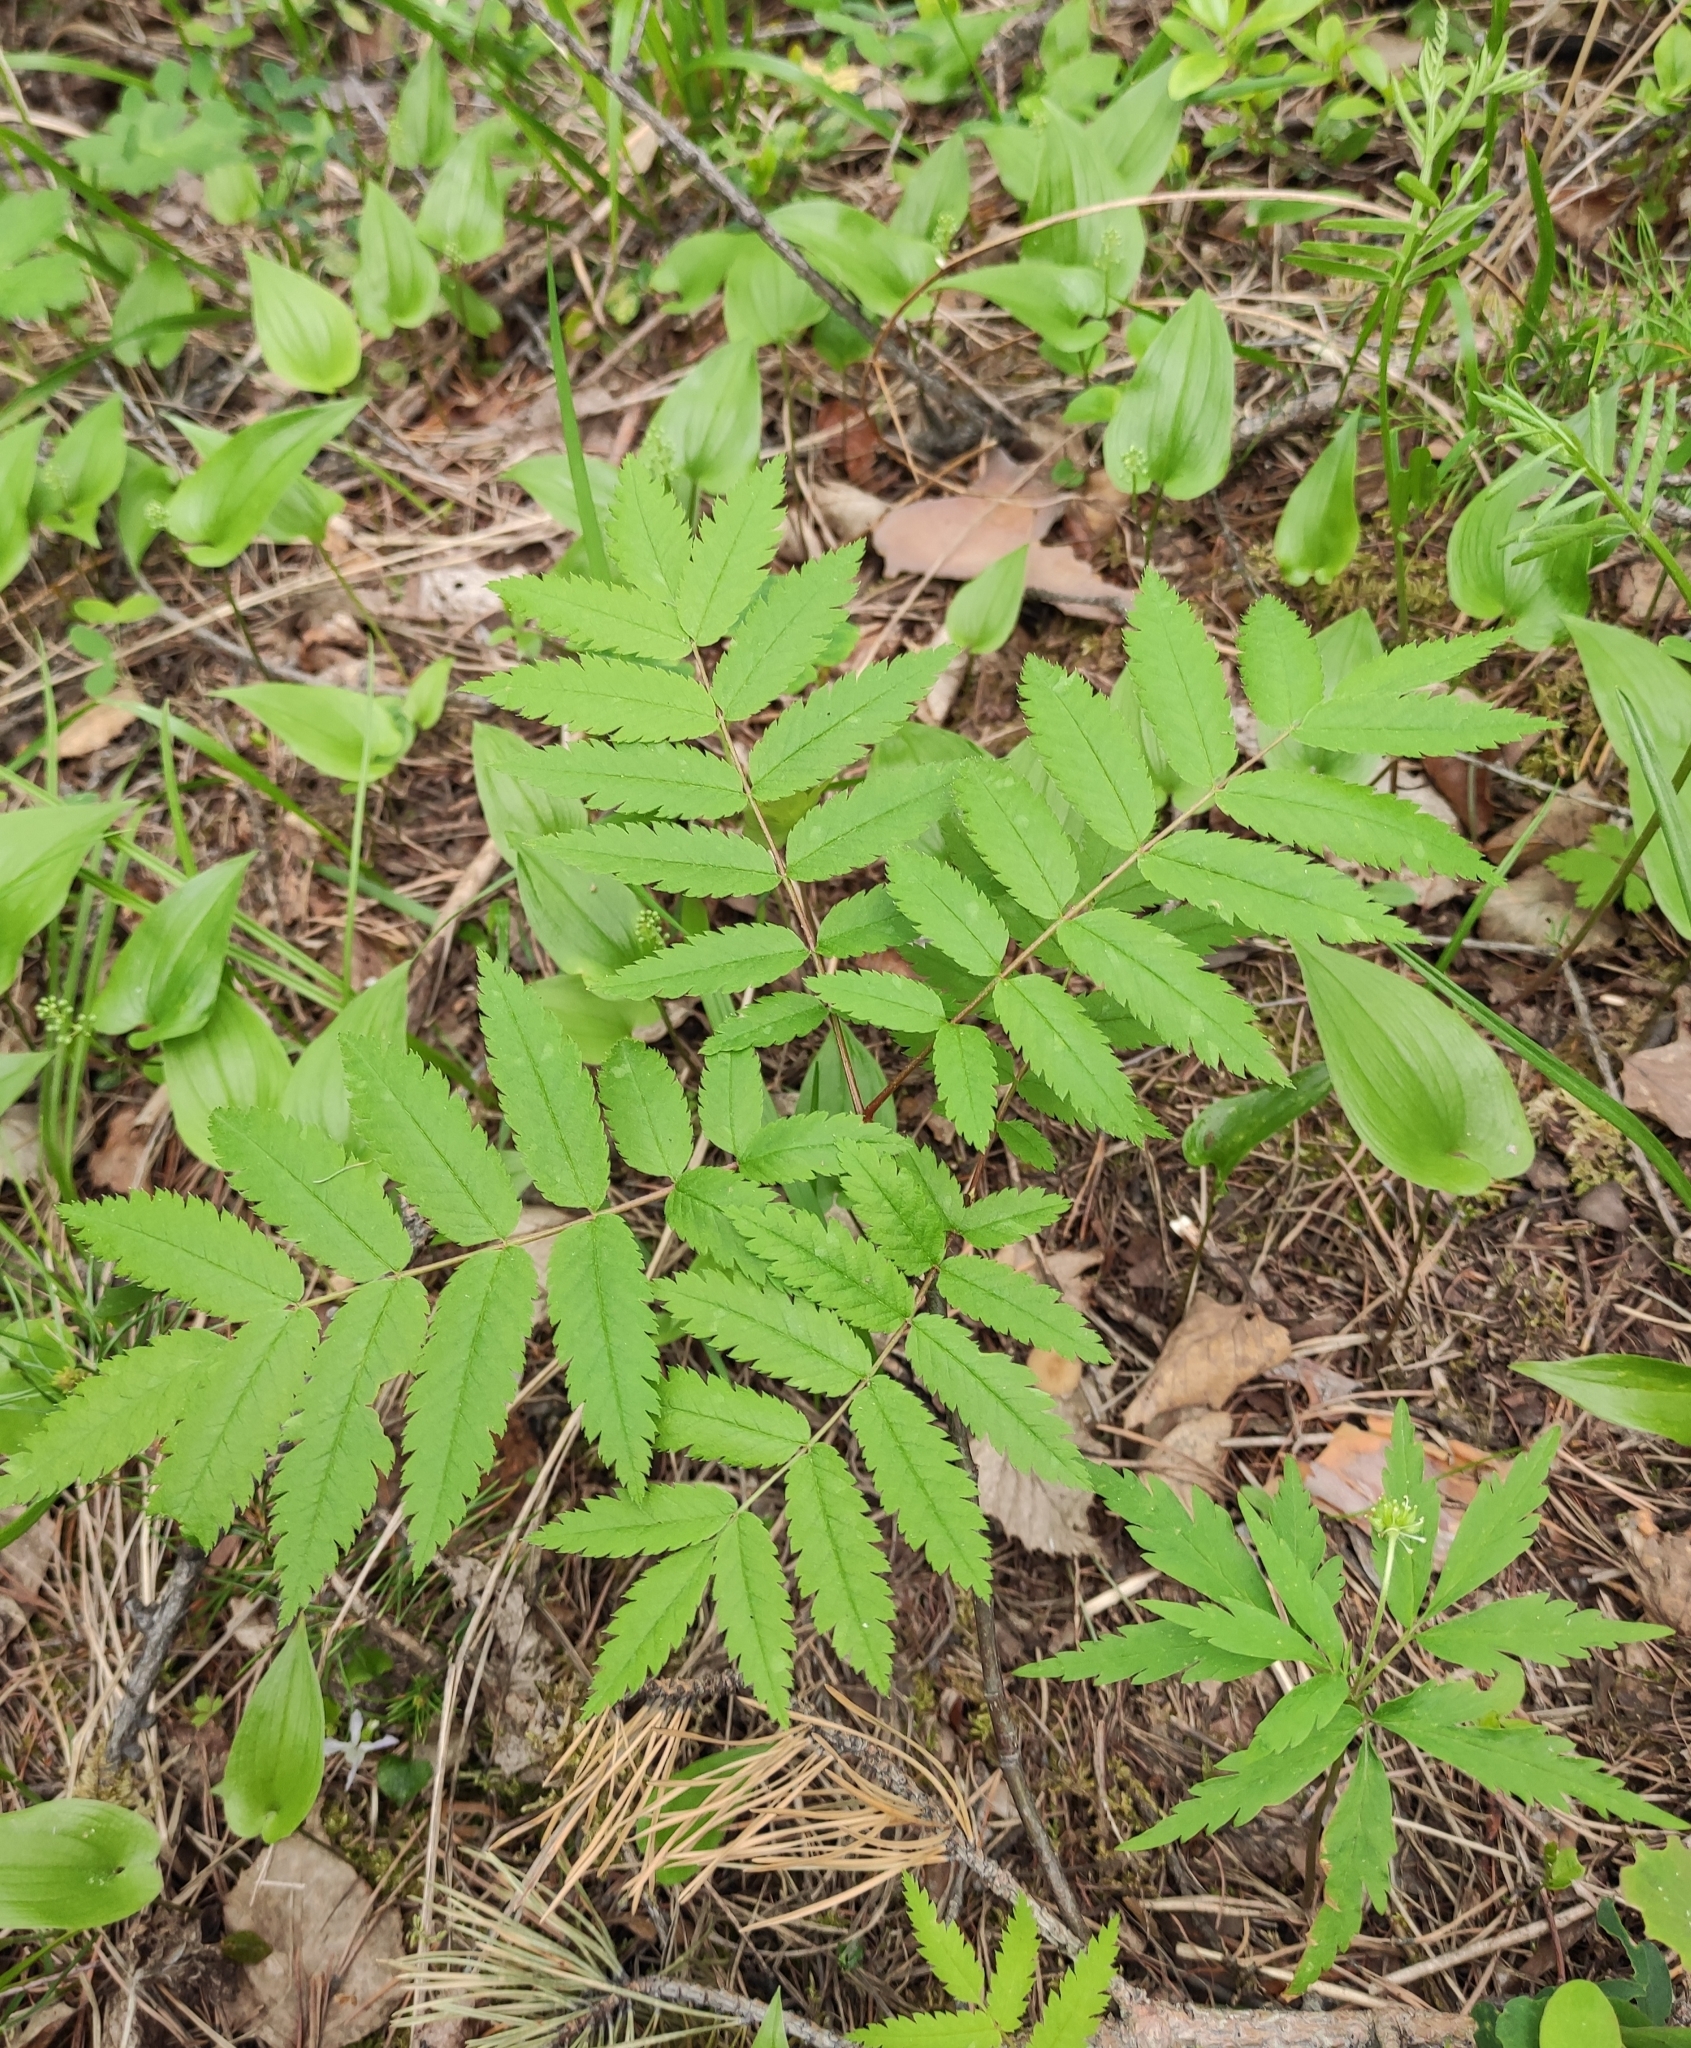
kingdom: Plantae
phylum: Tracheophyta
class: Magnoliopsida
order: Rosales
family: Rosaceae
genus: Sorbus
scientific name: Sorbus aucuparia
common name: Rowan
